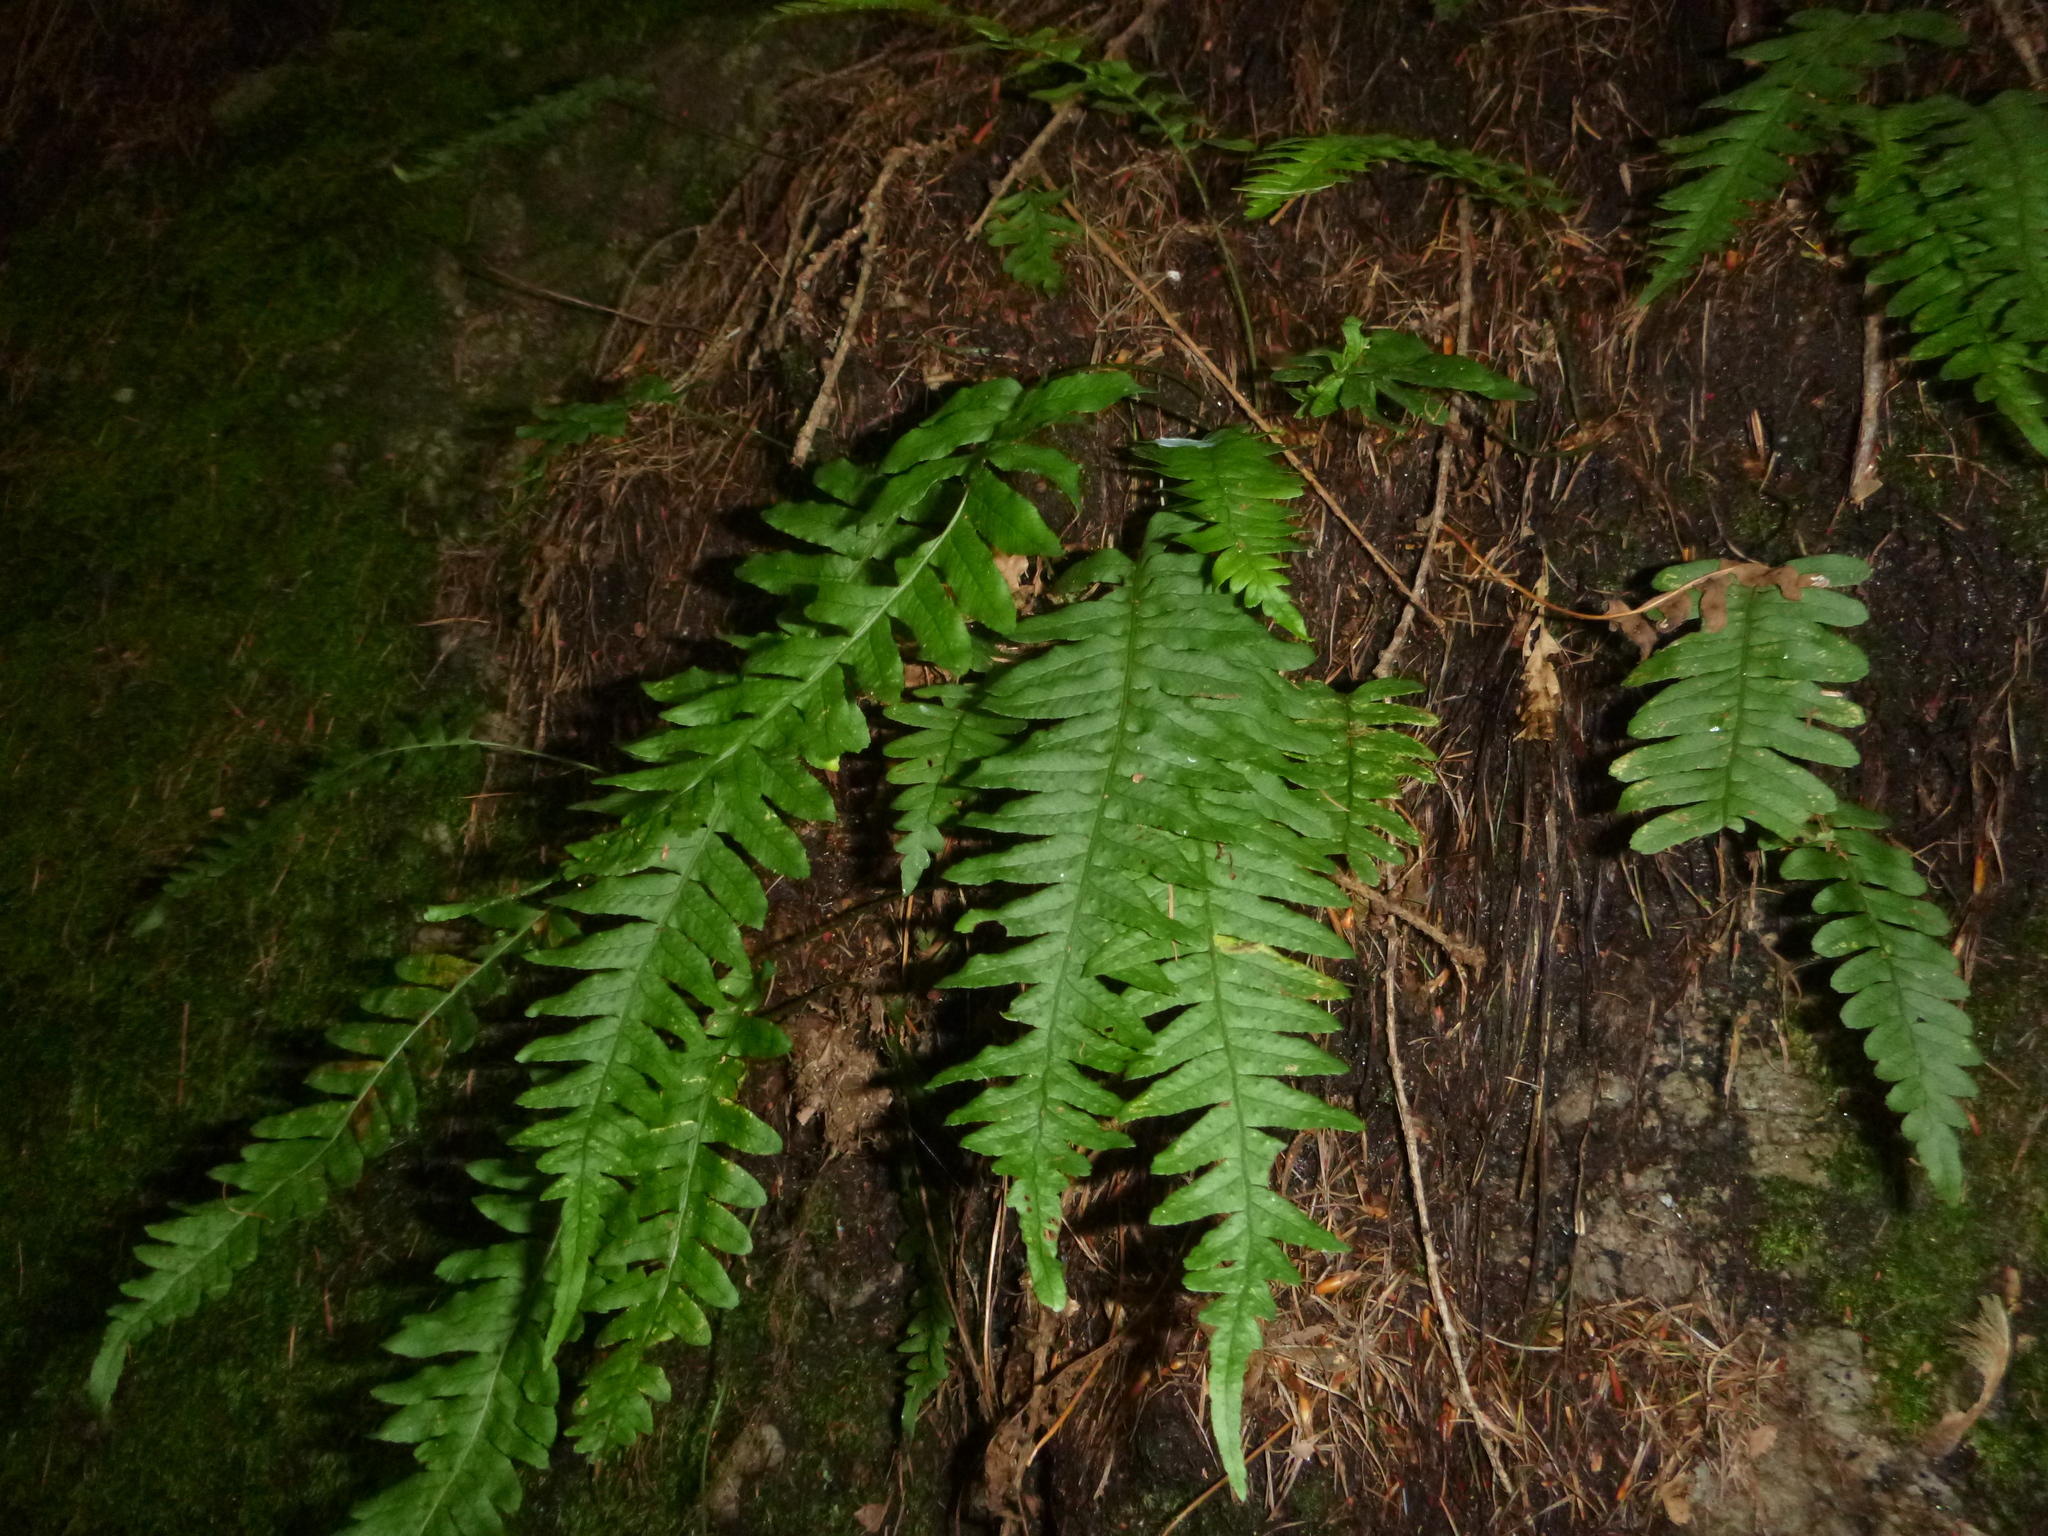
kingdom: Plantae
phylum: Tracheophyta
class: Polypodiopsida
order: Polypodiales
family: Polypodiaceae
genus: Polypodium
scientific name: Polypodium vulgare
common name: Common polypody
